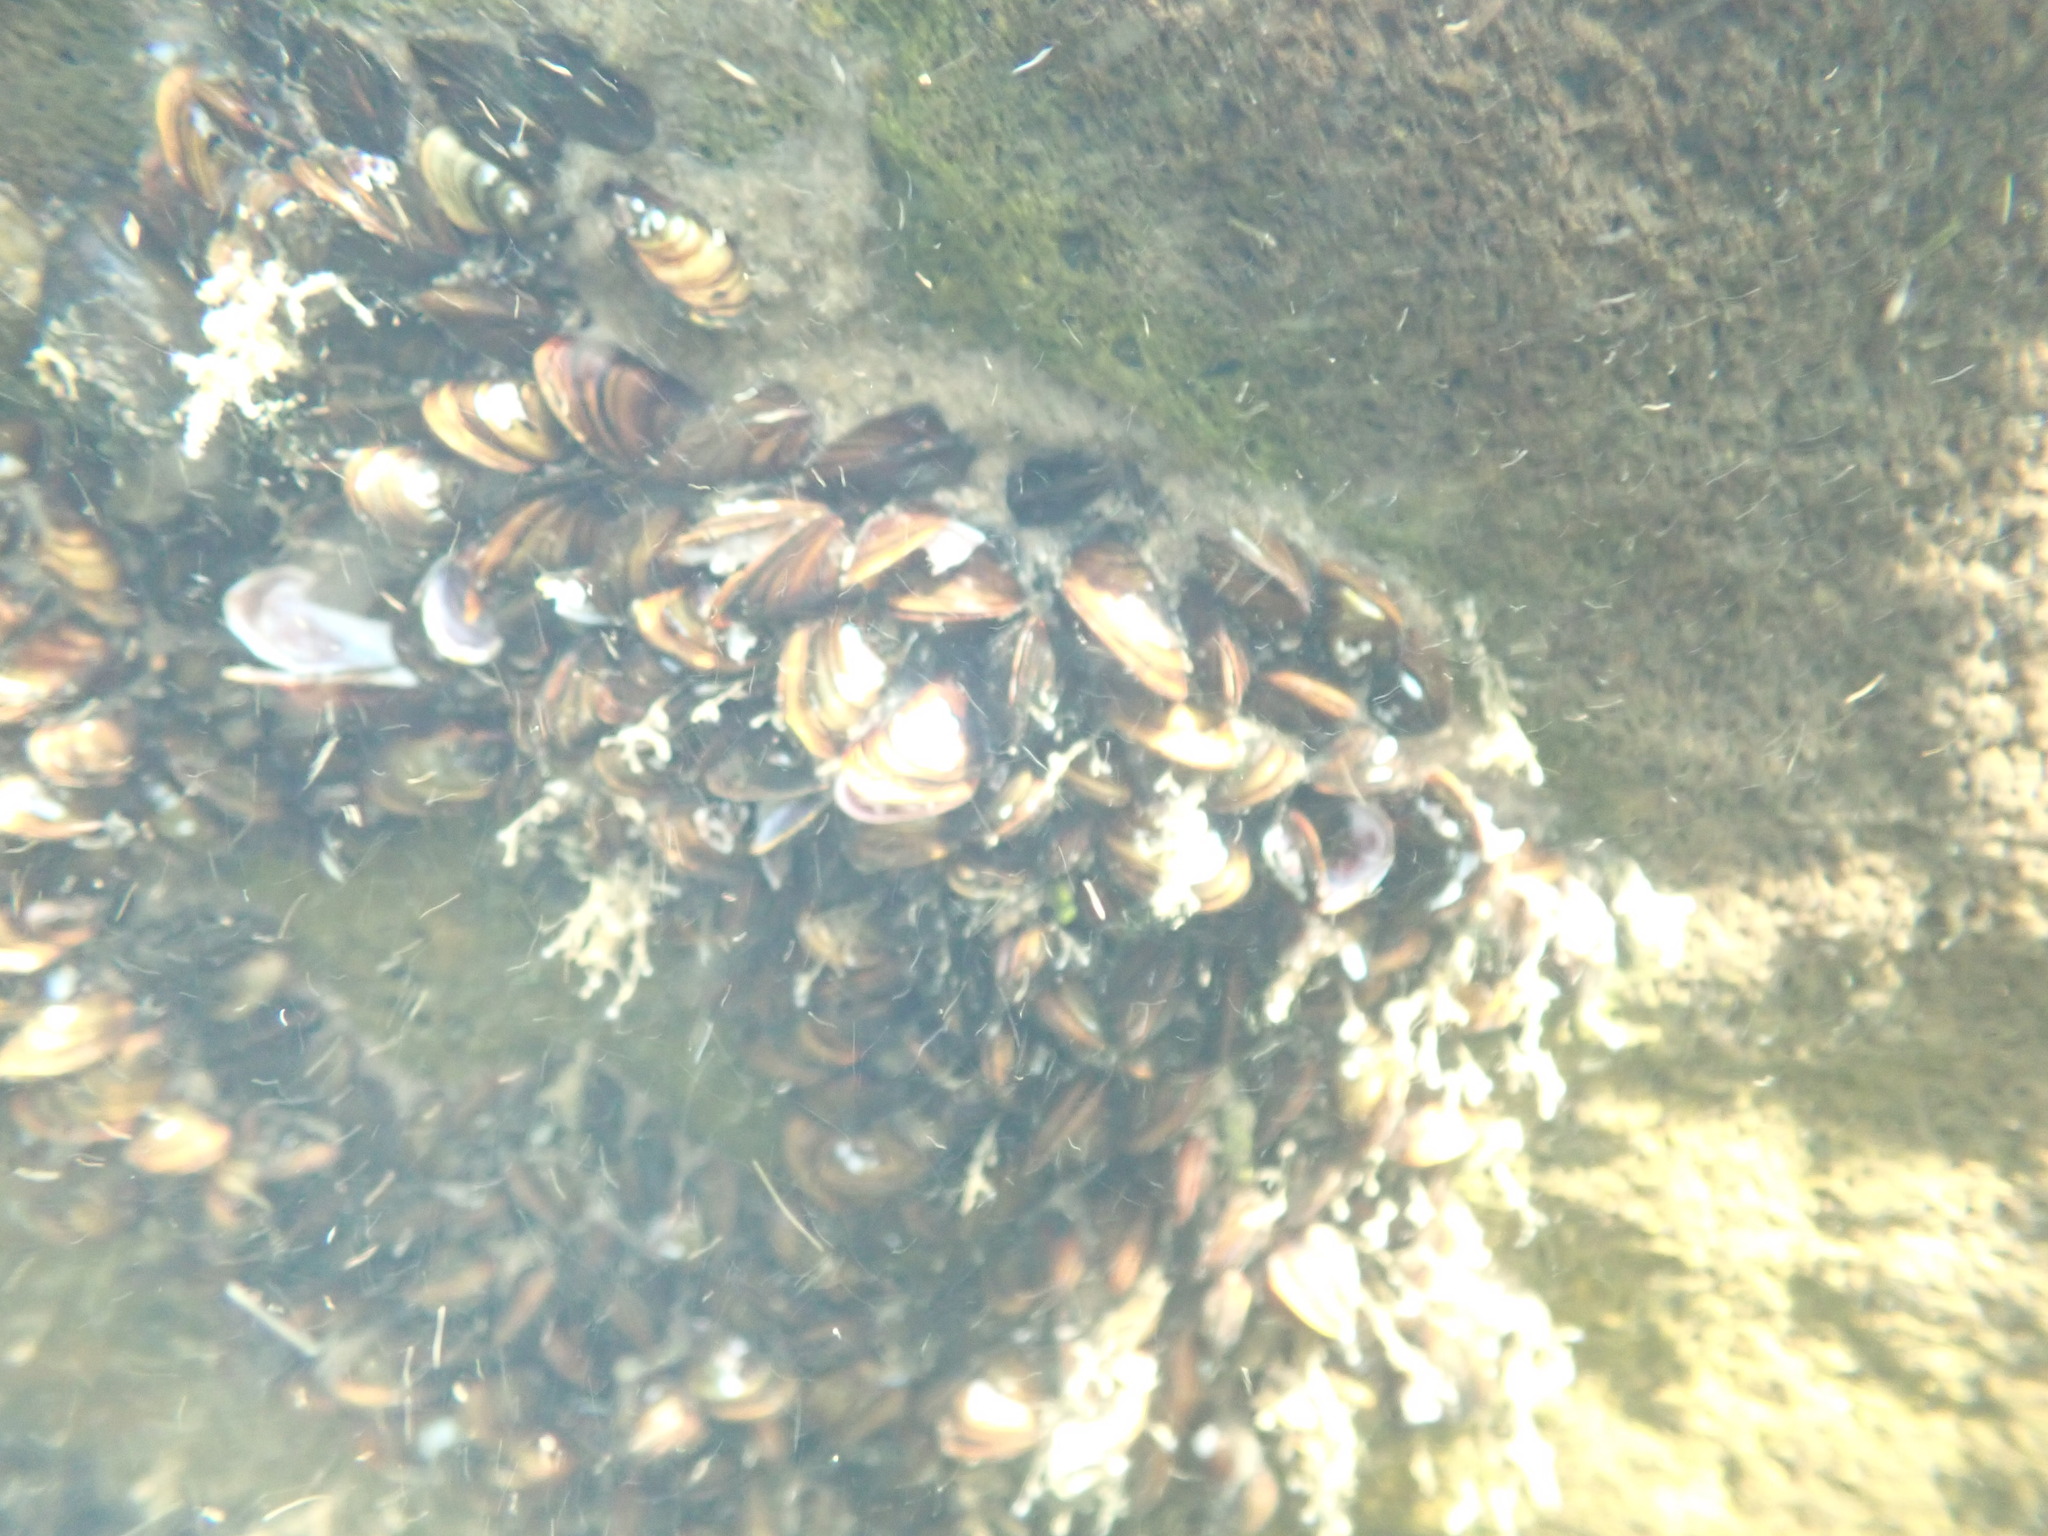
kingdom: Animalia
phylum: Mollusca
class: Bivalvia
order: Mytilida
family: Mytilidae
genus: Xenostrobus
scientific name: Xenostrobus securis
